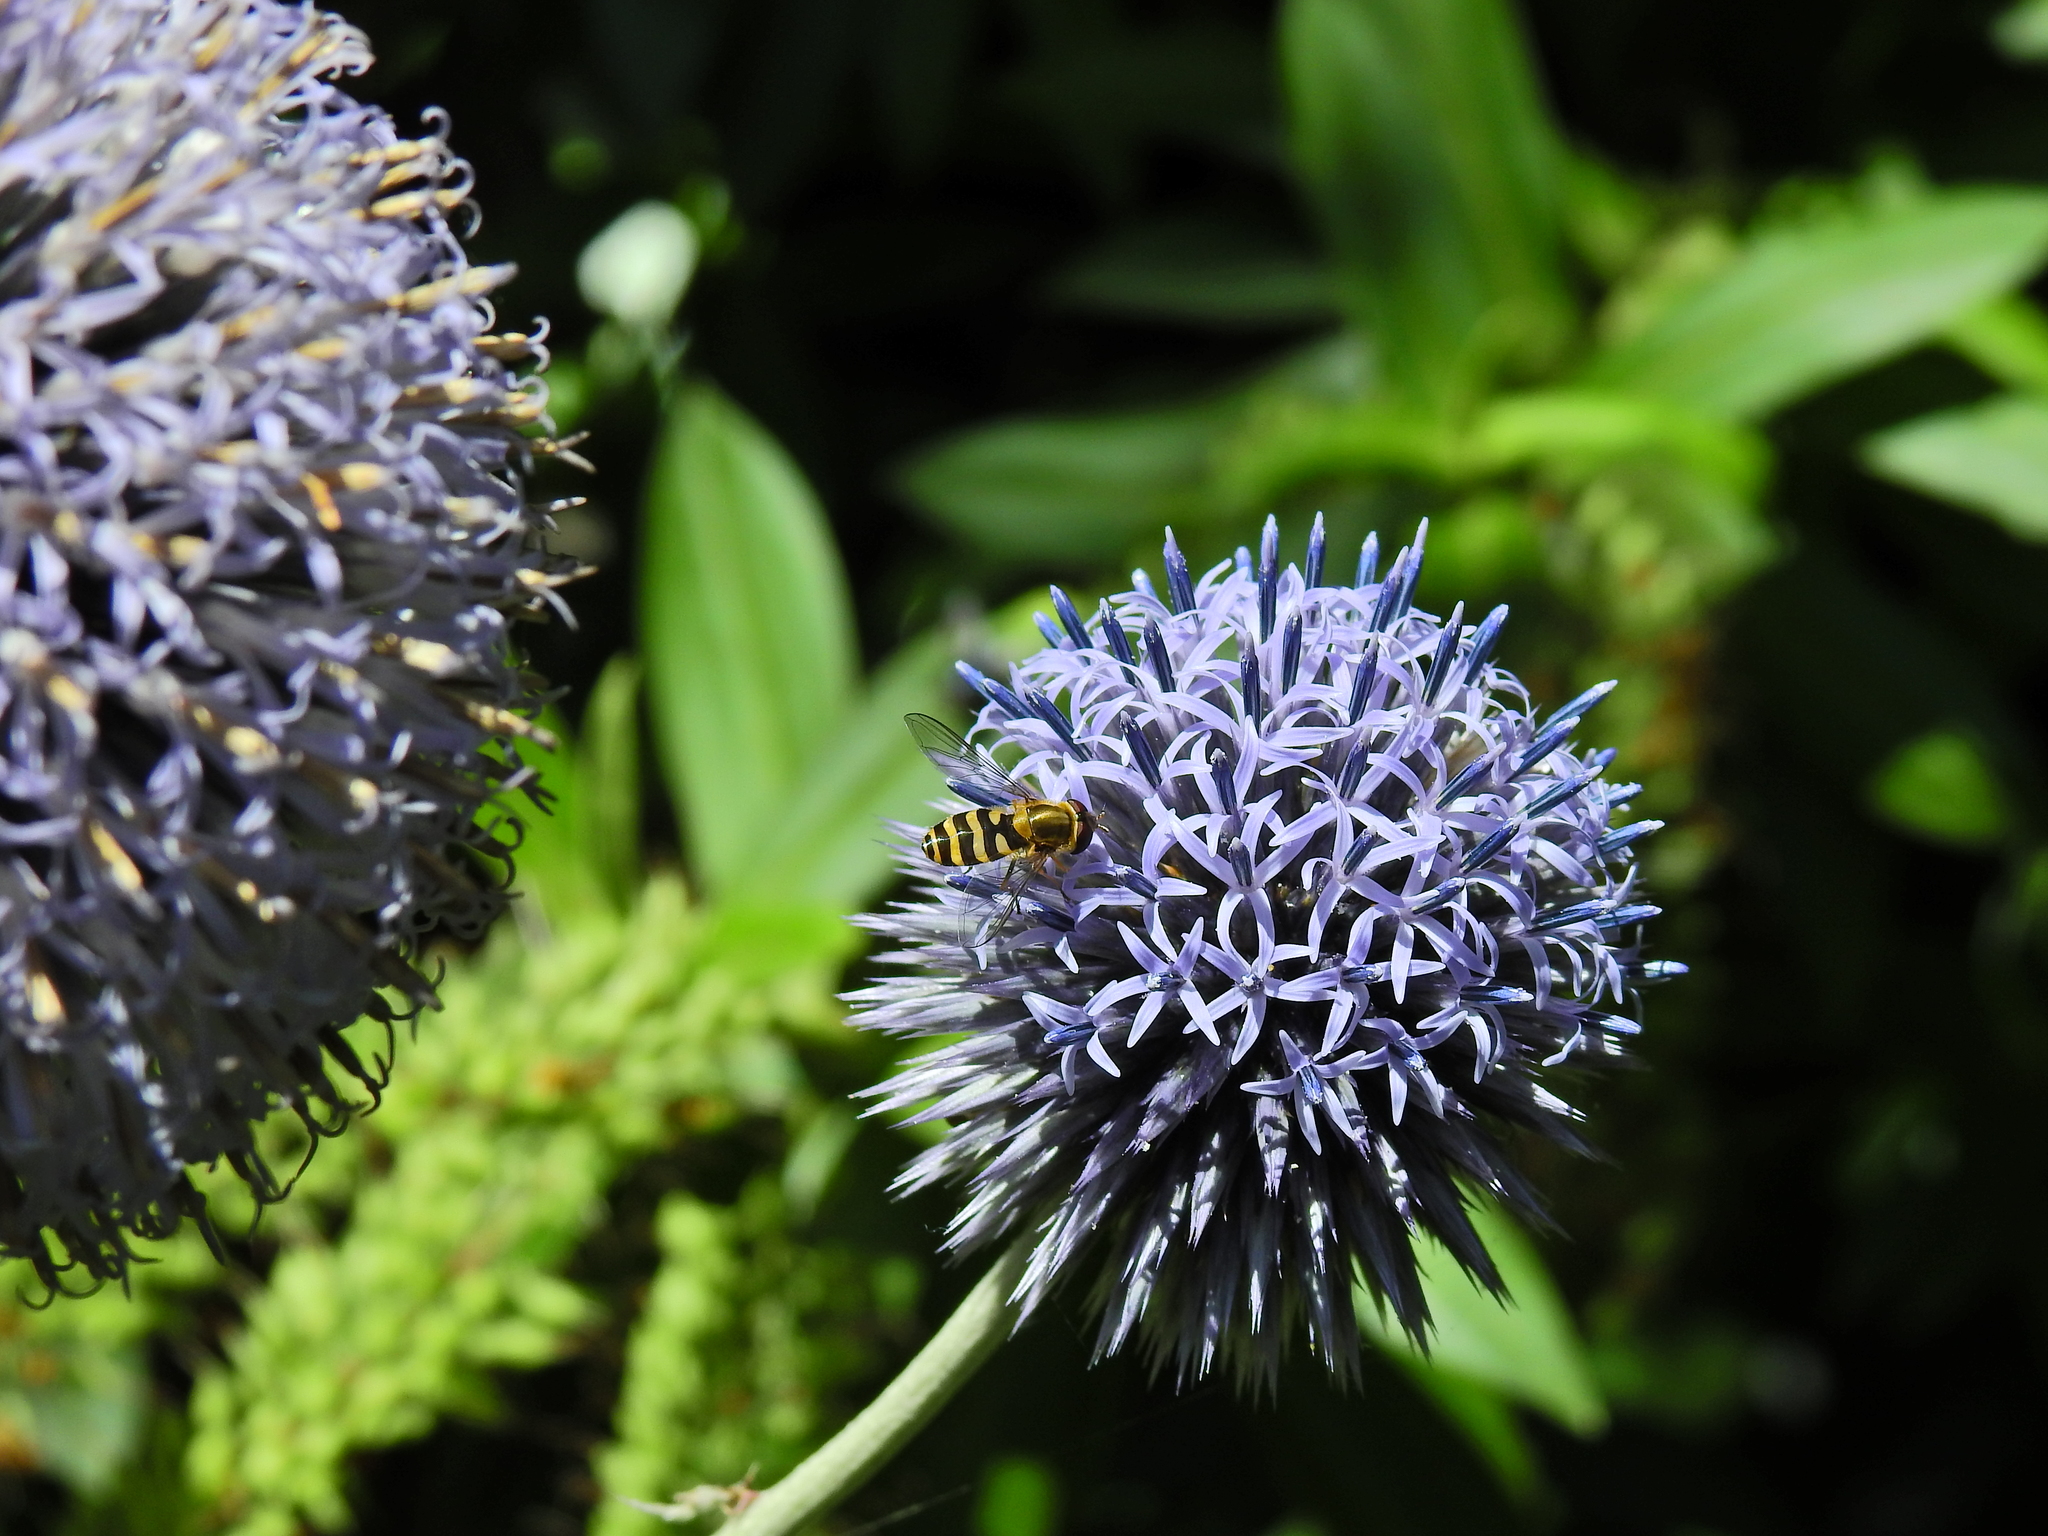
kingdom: Animalia
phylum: Arthropoda
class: Insecta
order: Diptera
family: Syrphidae
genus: Syrphus
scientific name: Syrphus
